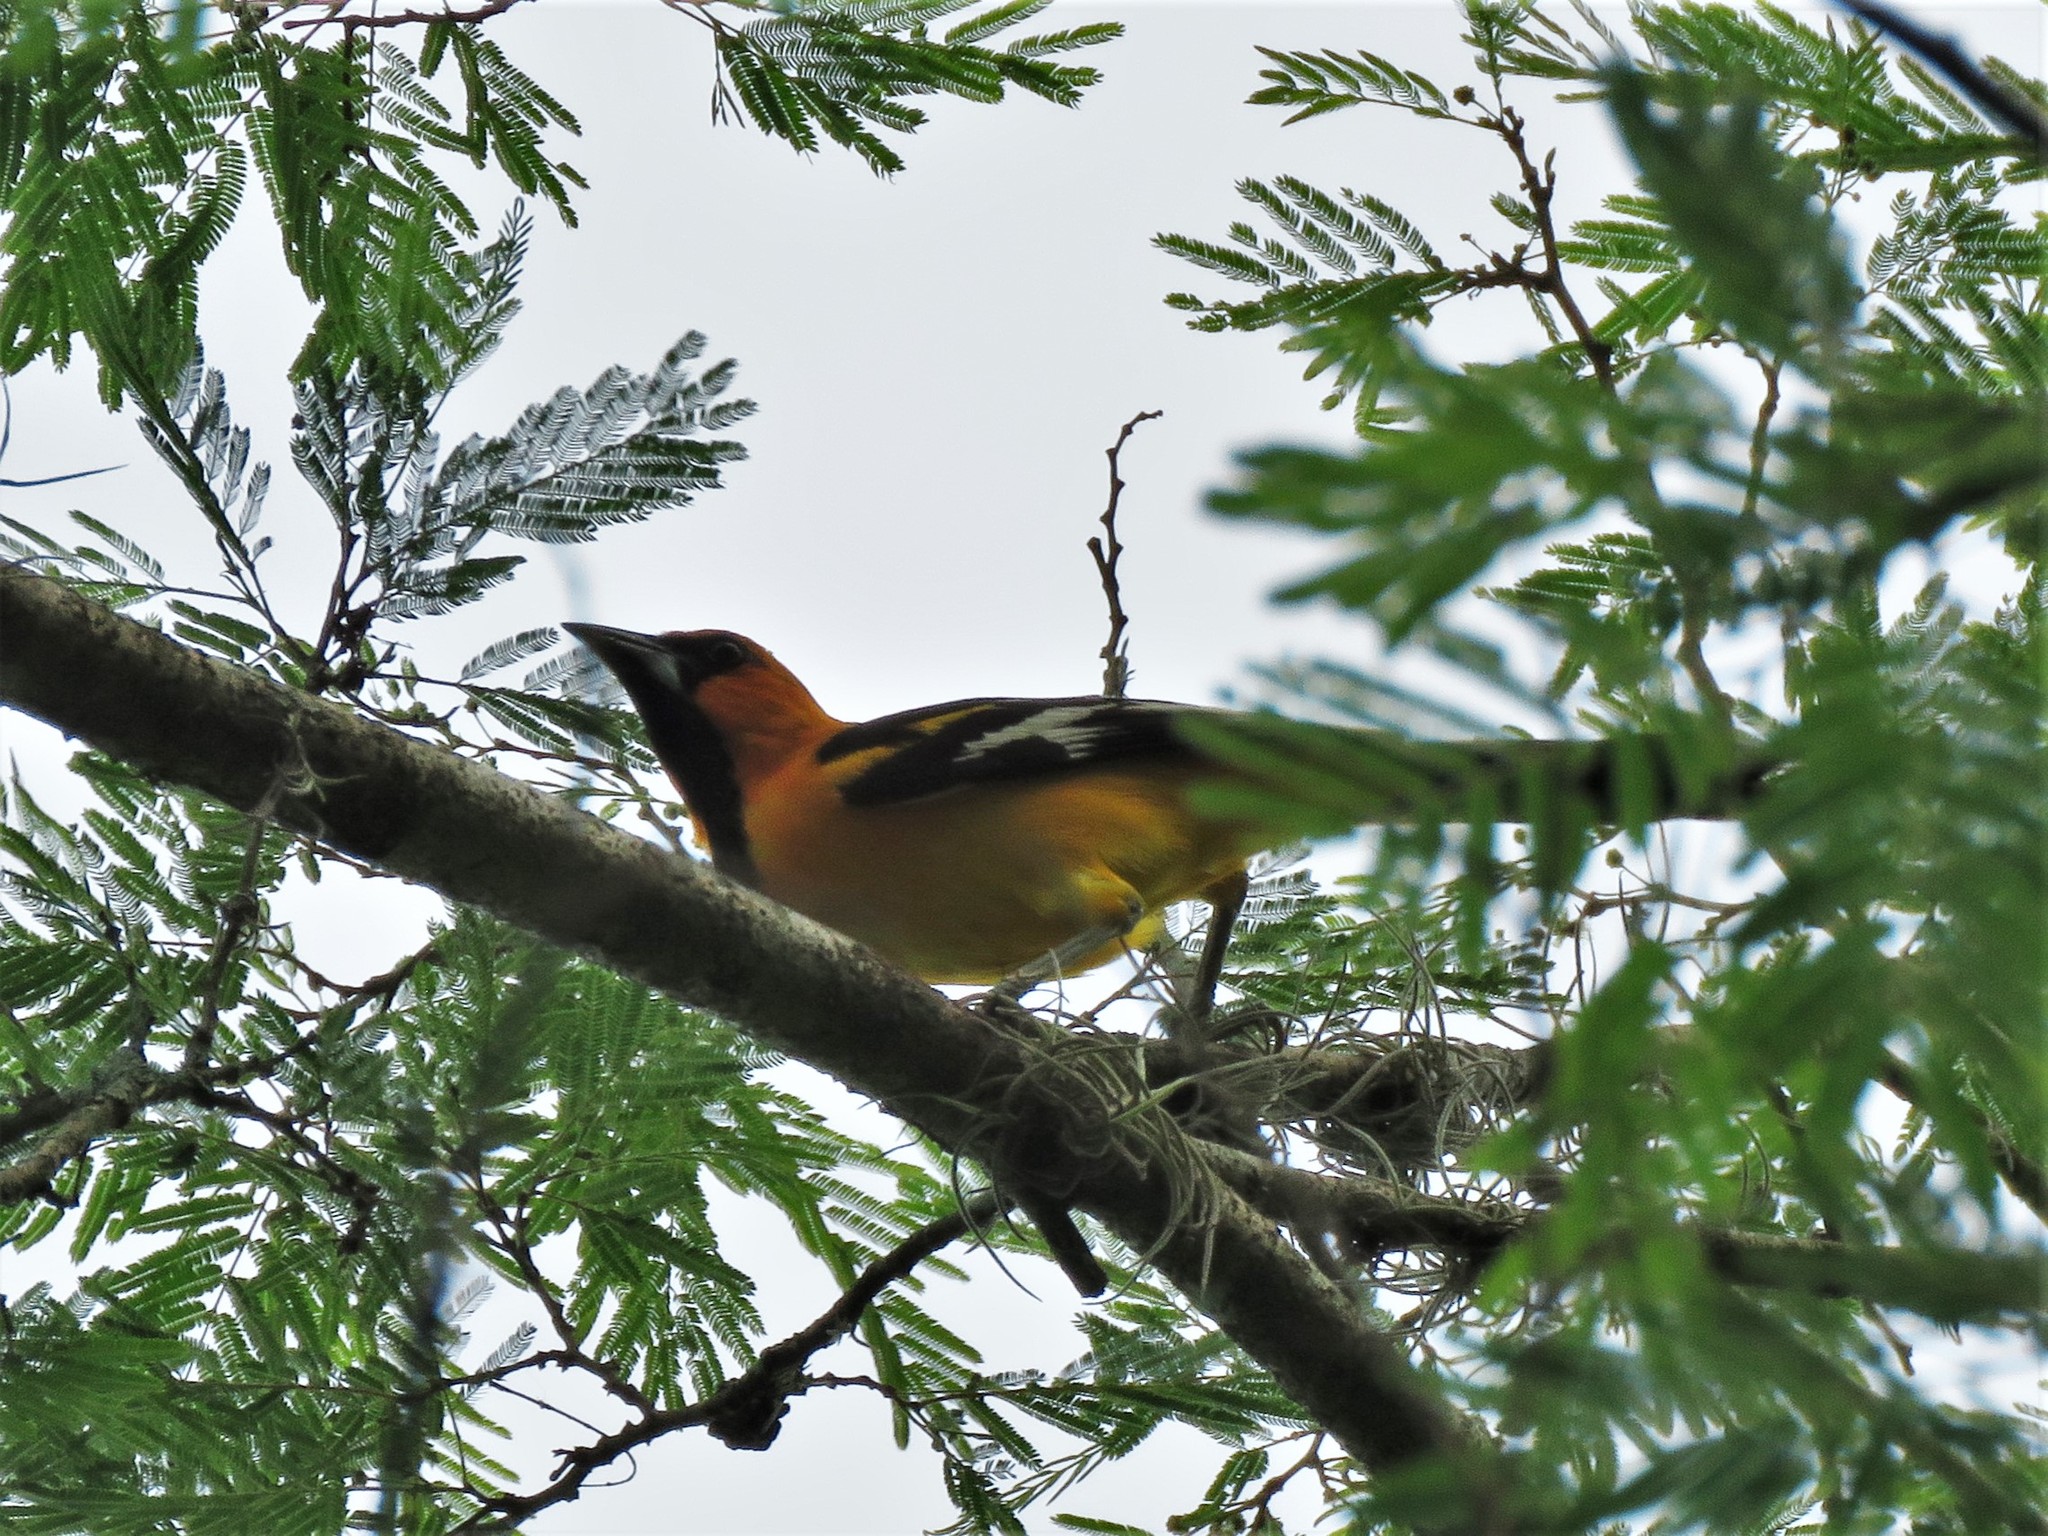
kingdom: Animalia
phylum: Chordata
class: Aves
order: Passeriformes
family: Icteridae
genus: Icterus
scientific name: Icterus gularis
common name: Altamira oriole
